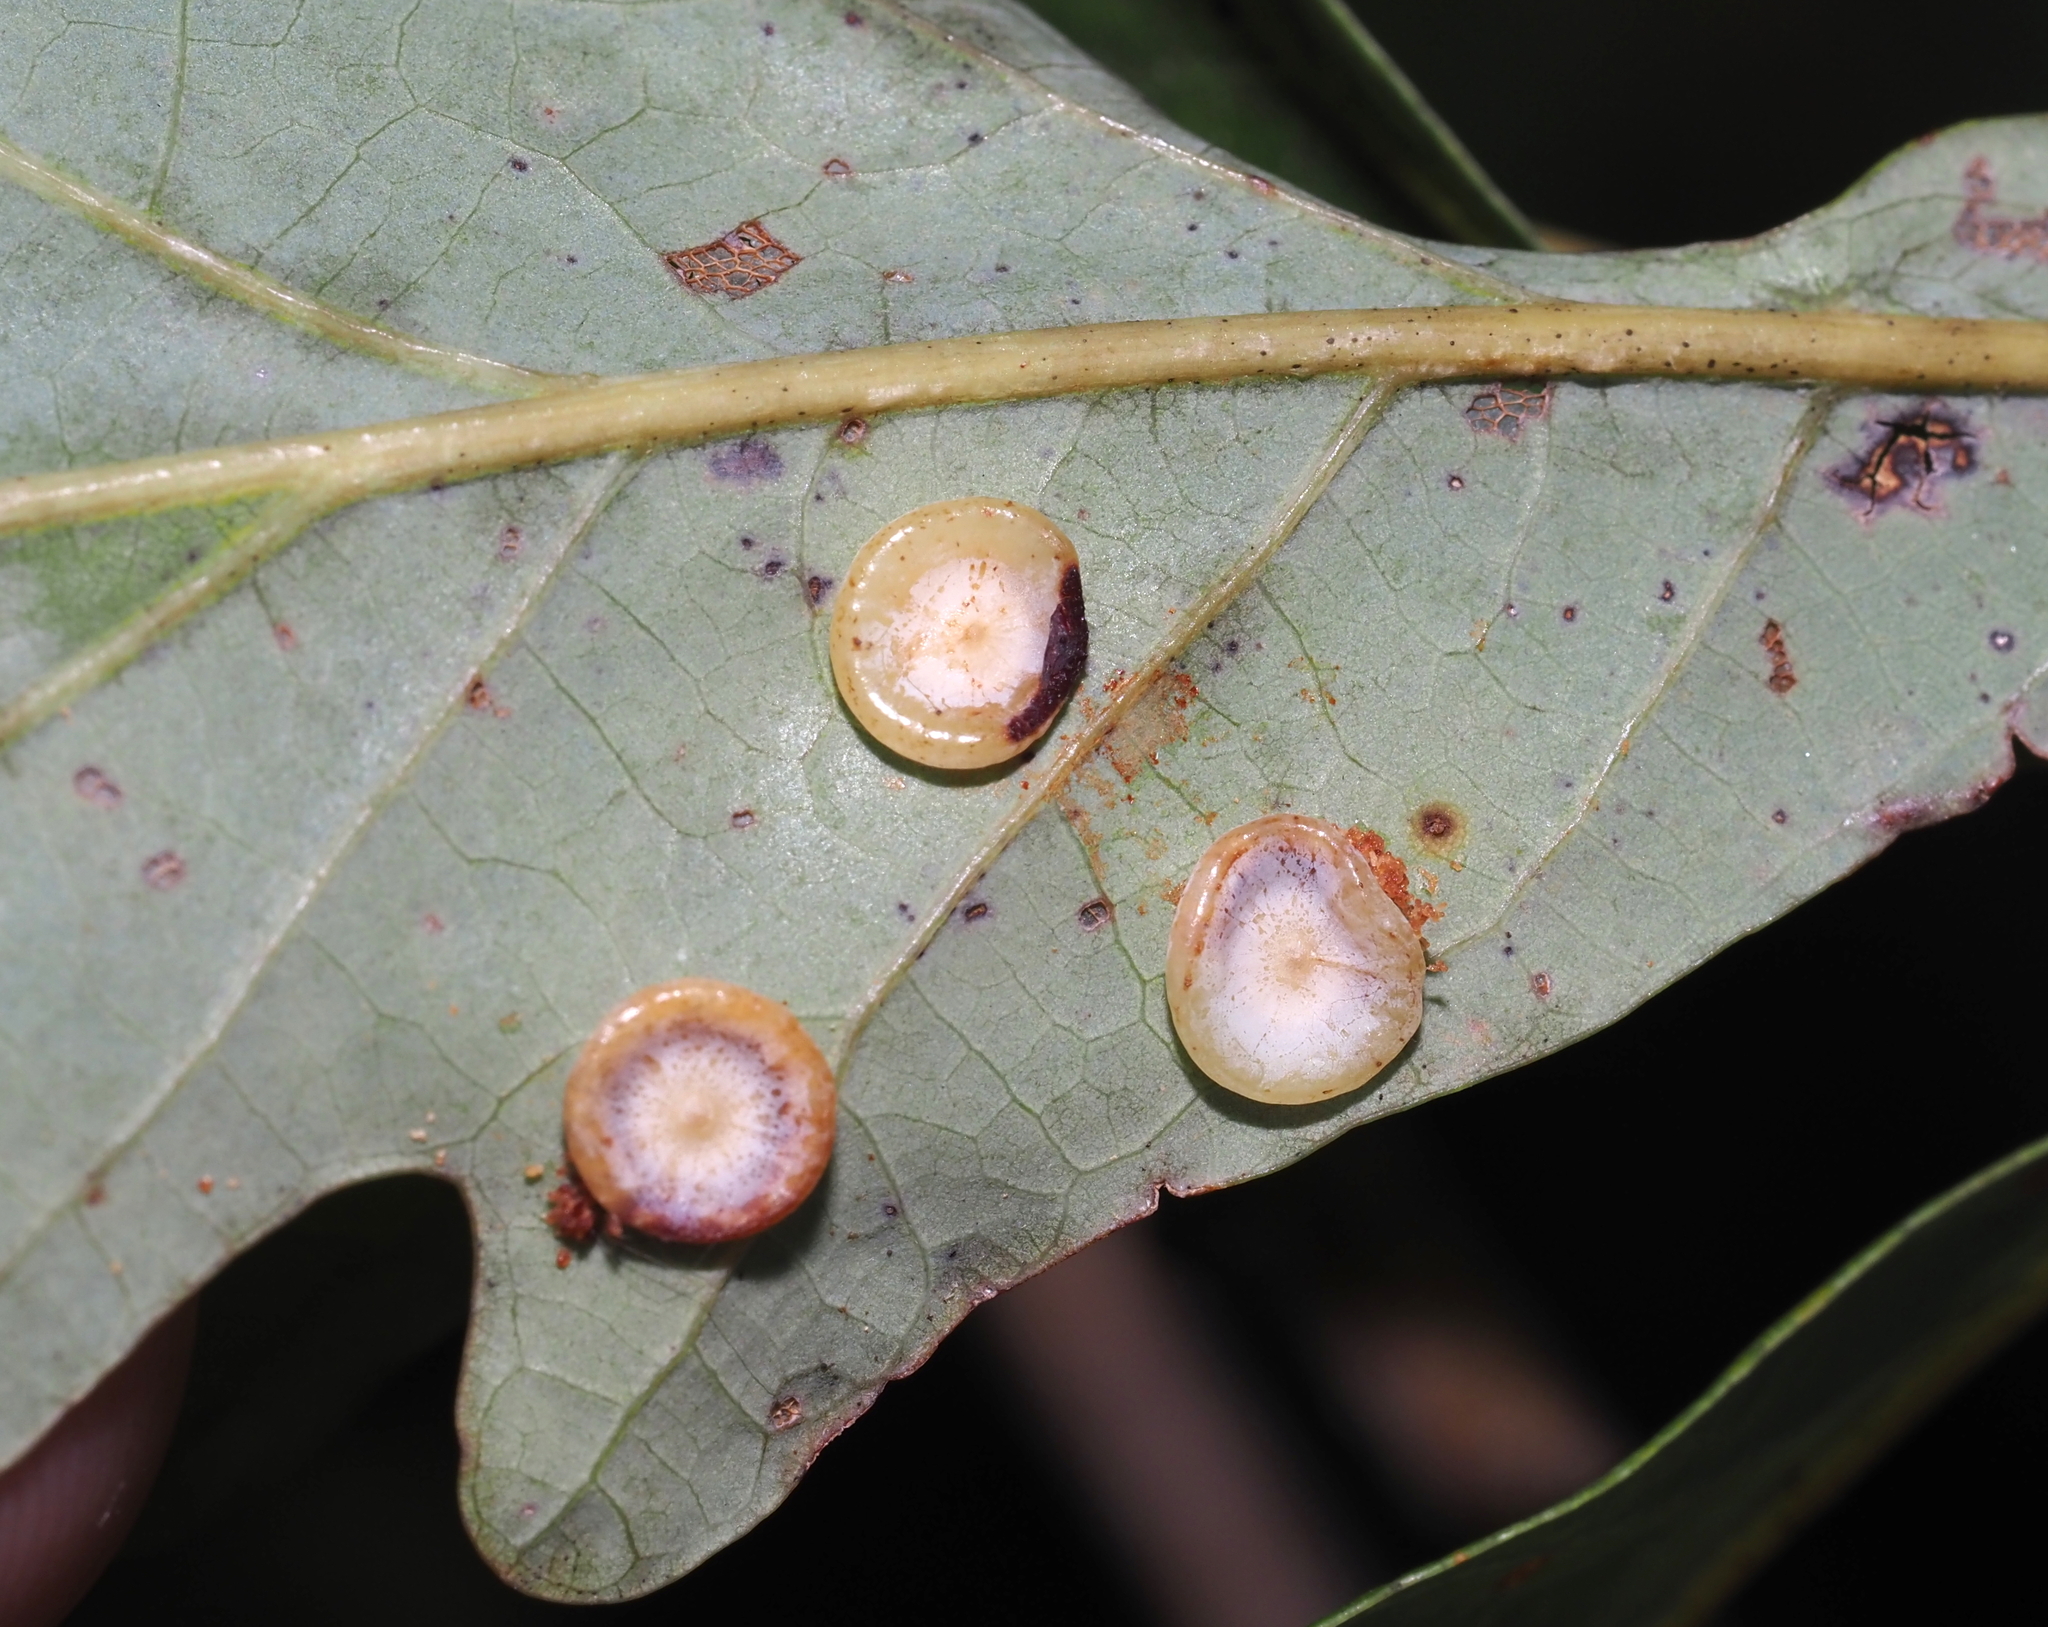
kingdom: Animalia
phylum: Arthropoda
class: Insecta
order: Hymenoptera
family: Cynipidae
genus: Phylloteras
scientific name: Phylloteras poculum
